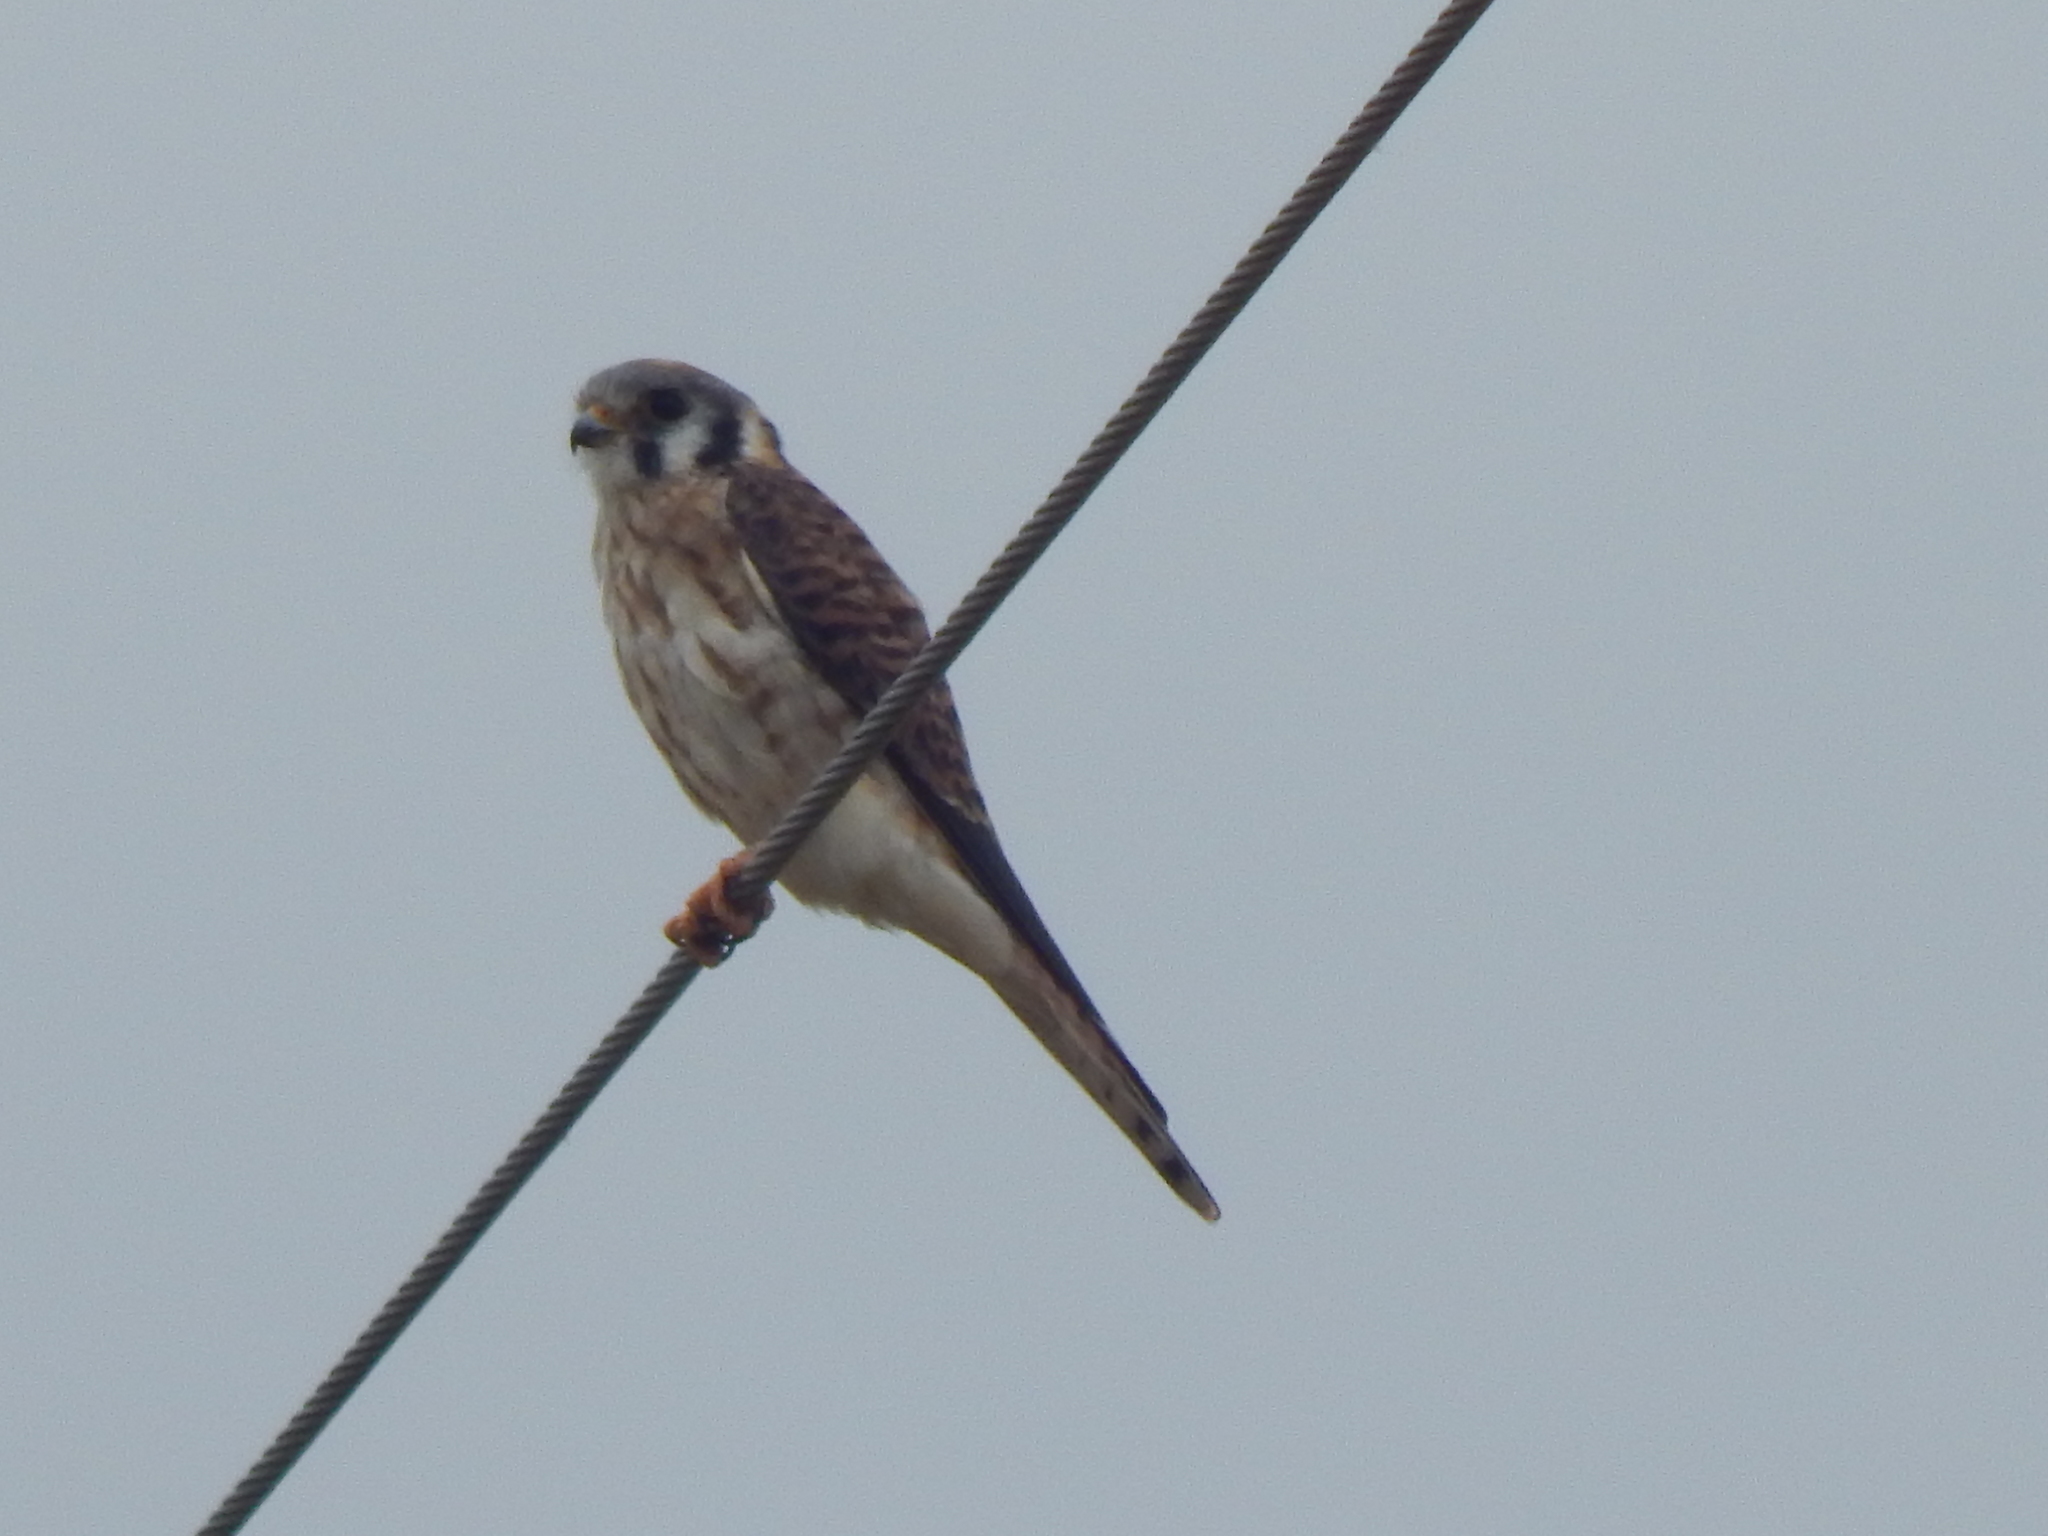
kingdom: Animalia
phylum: Chordata
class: Aves
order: Falconiformes
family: Falconidae
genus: Falco
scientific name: Falco sparverius
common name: American kestrel
